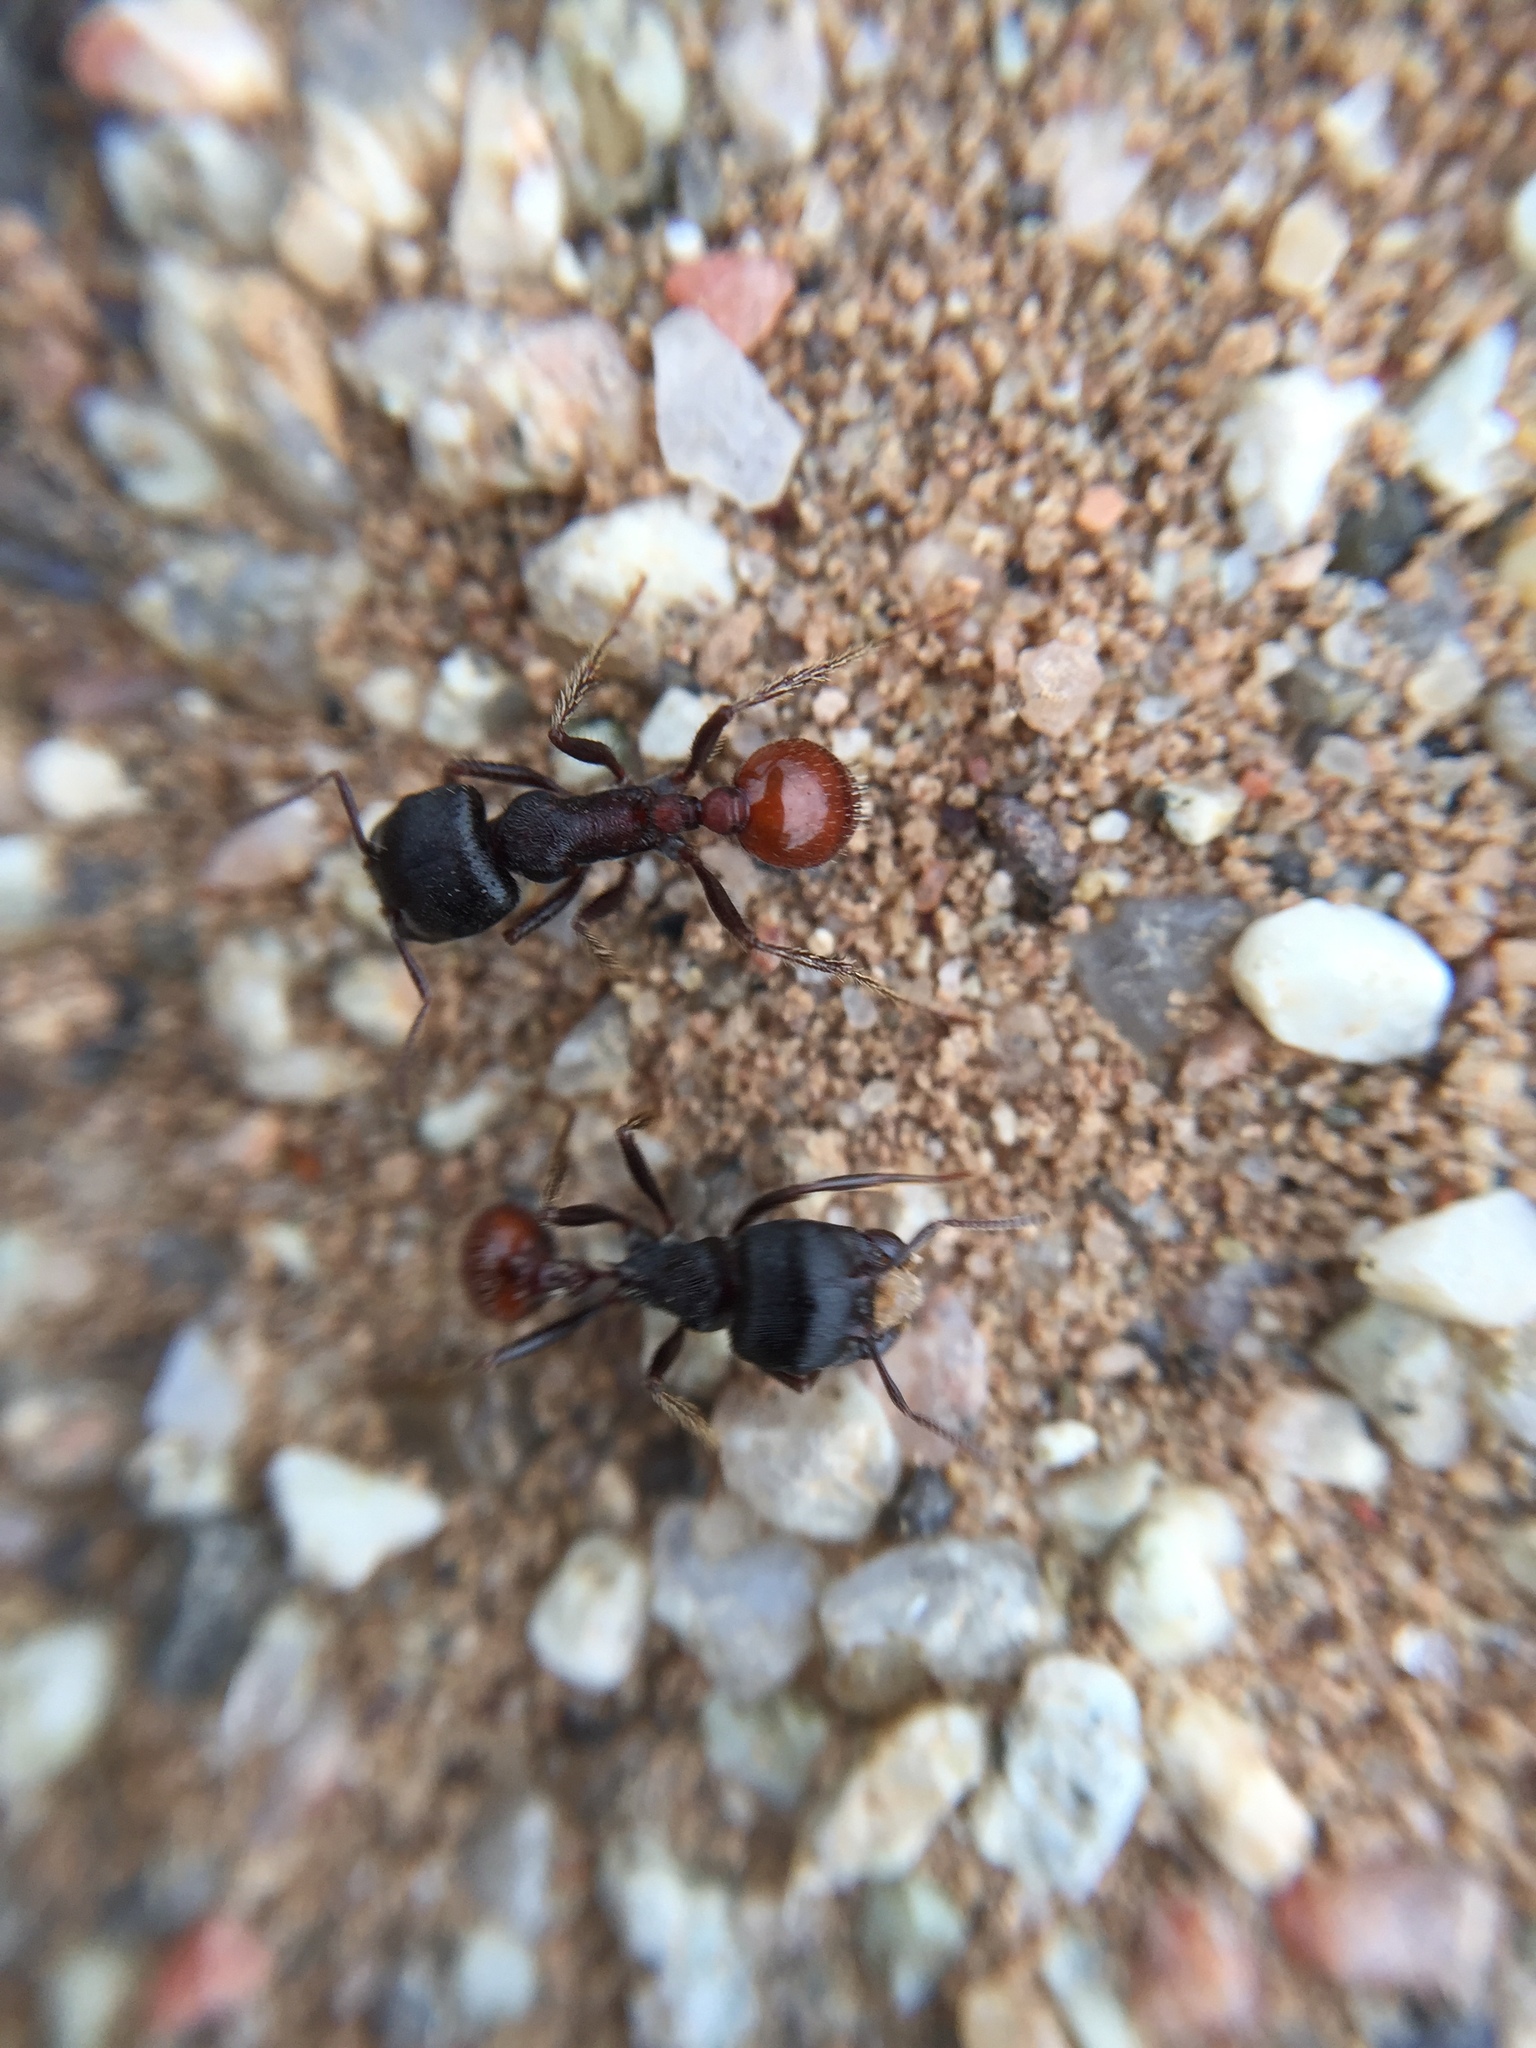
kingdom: Animalia
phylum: Arthropoda
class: Insecta
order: Hymenoptera
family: Formicidae
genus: Pogonomyrmex
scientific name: Pogonomyrmex rugosus
